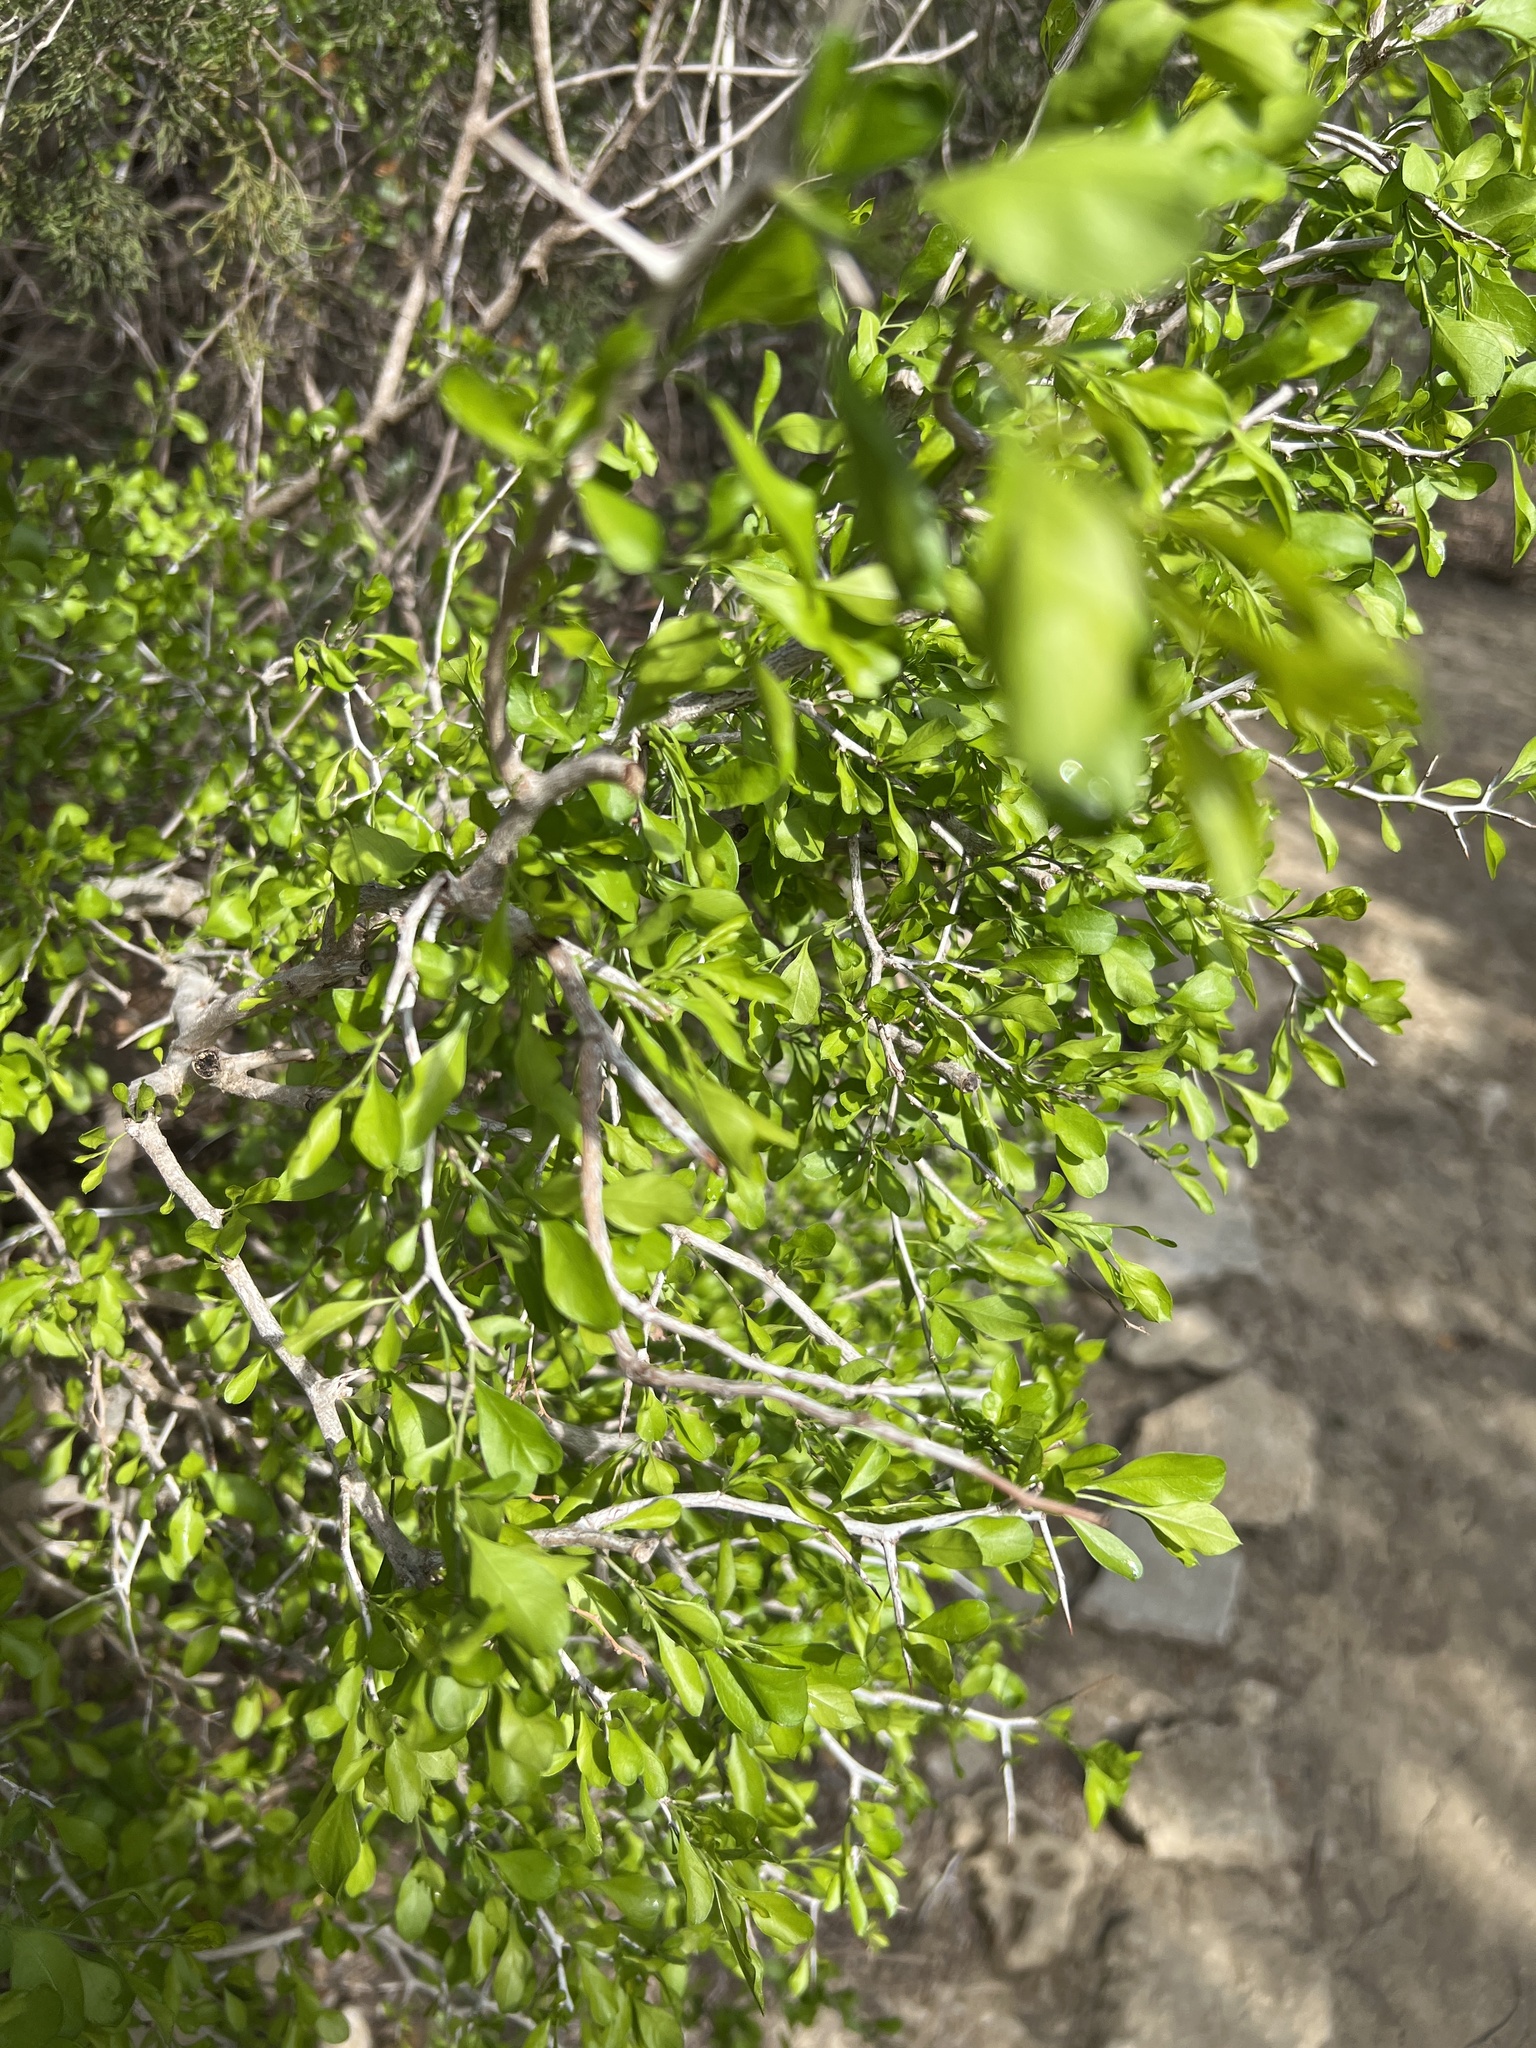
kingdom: Plantae
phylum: Tracheophyta
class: Magnoliopsida
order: Rosales
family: Rhamnaceae
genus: Condalia
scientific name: Condalia hookeri
